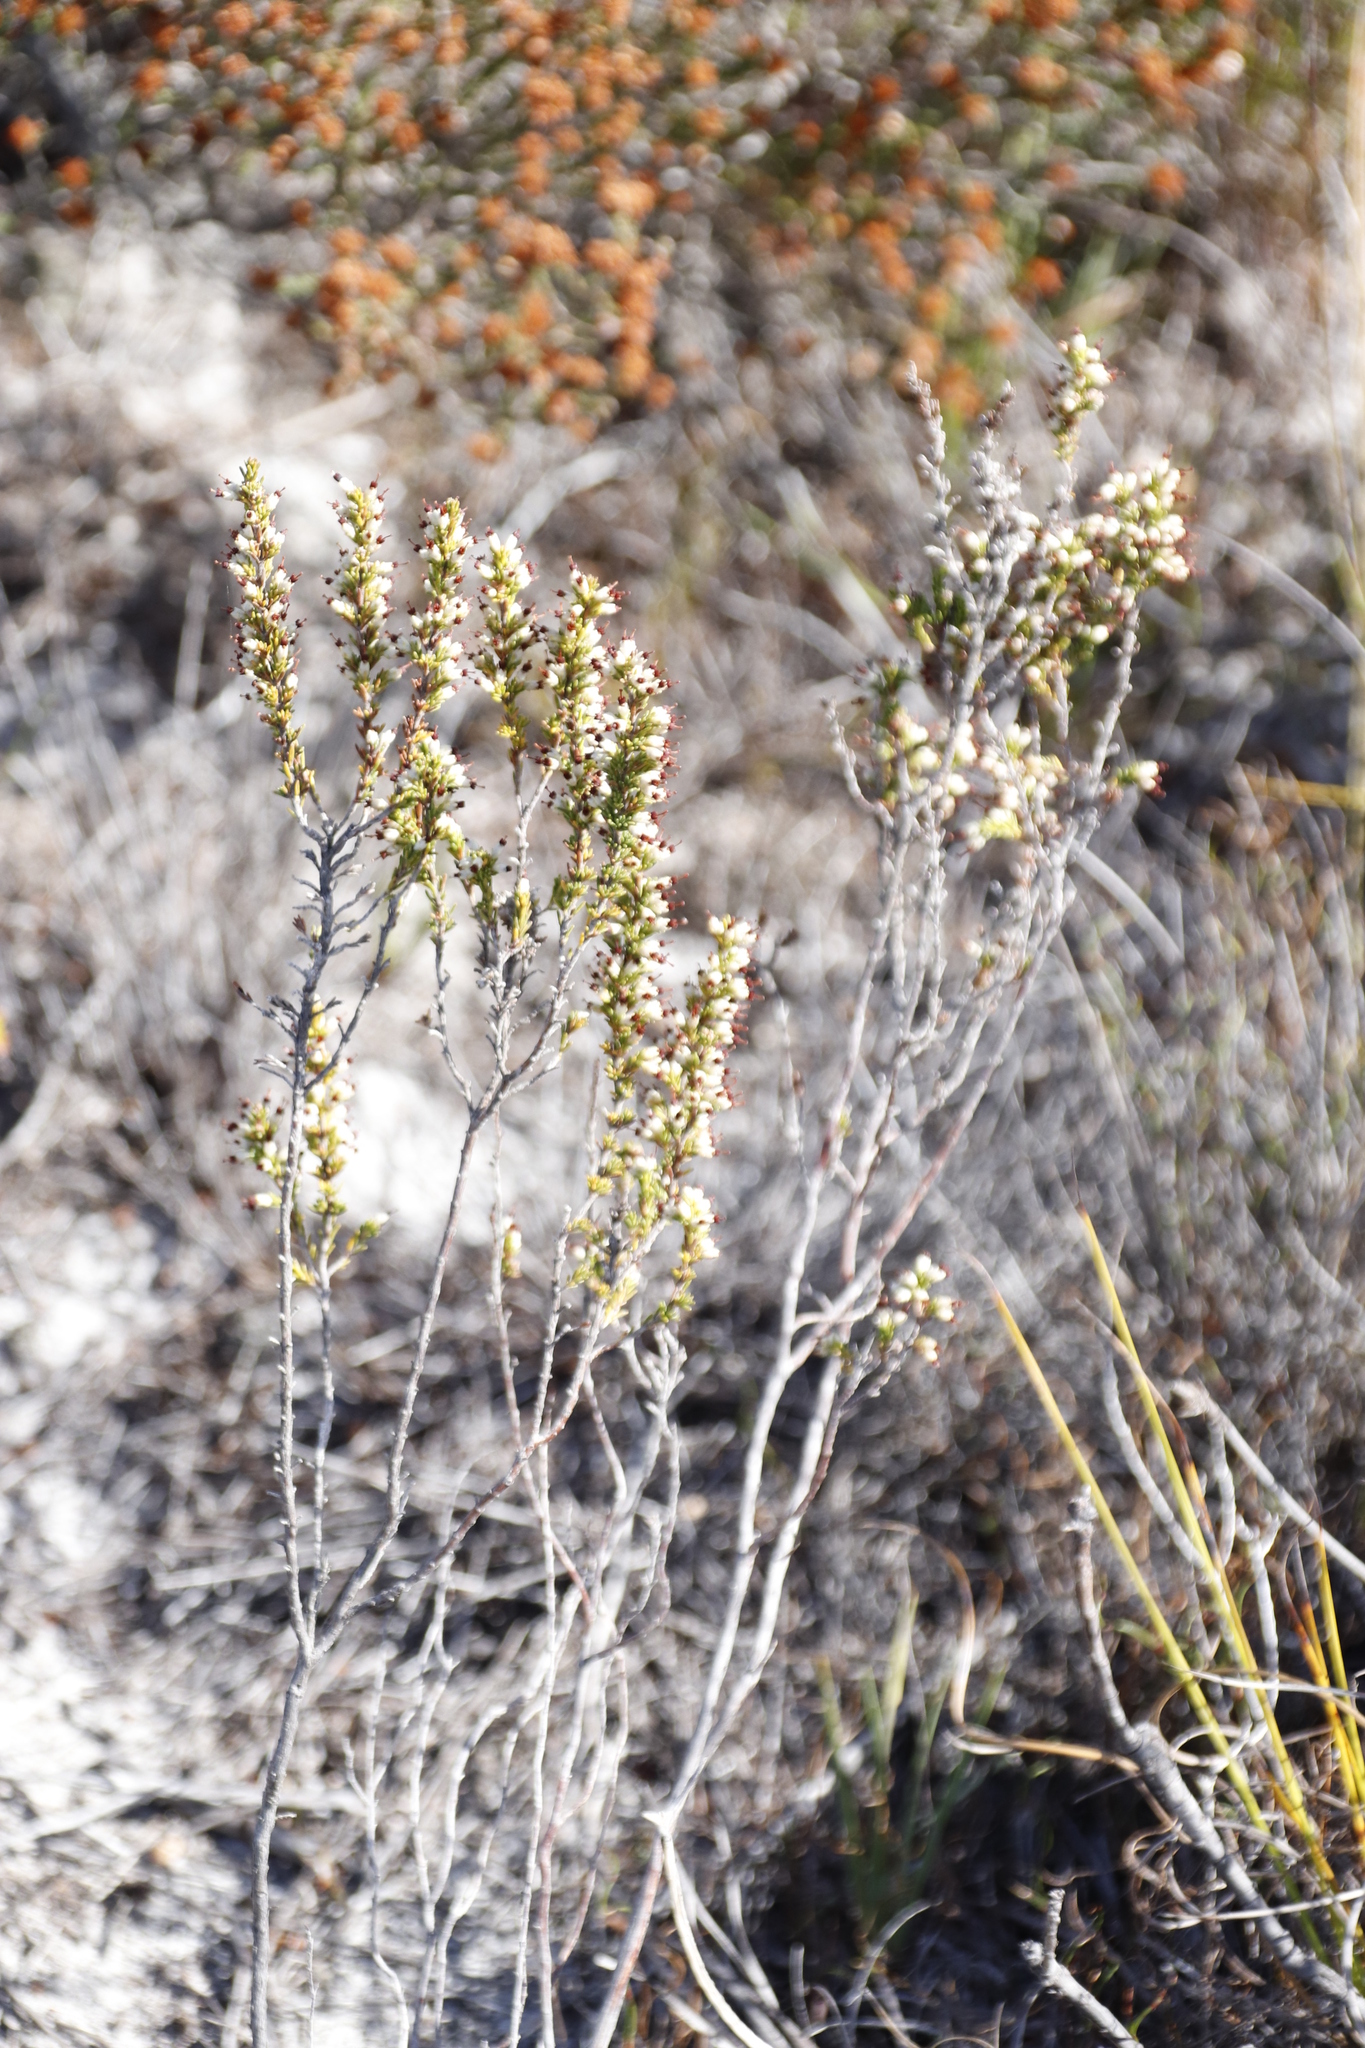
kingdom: Plantae
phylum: Tracheophyta
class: Magnoliopsida
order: Ericales
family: Ericaceae
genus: Erica
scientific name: Erica imbricata
